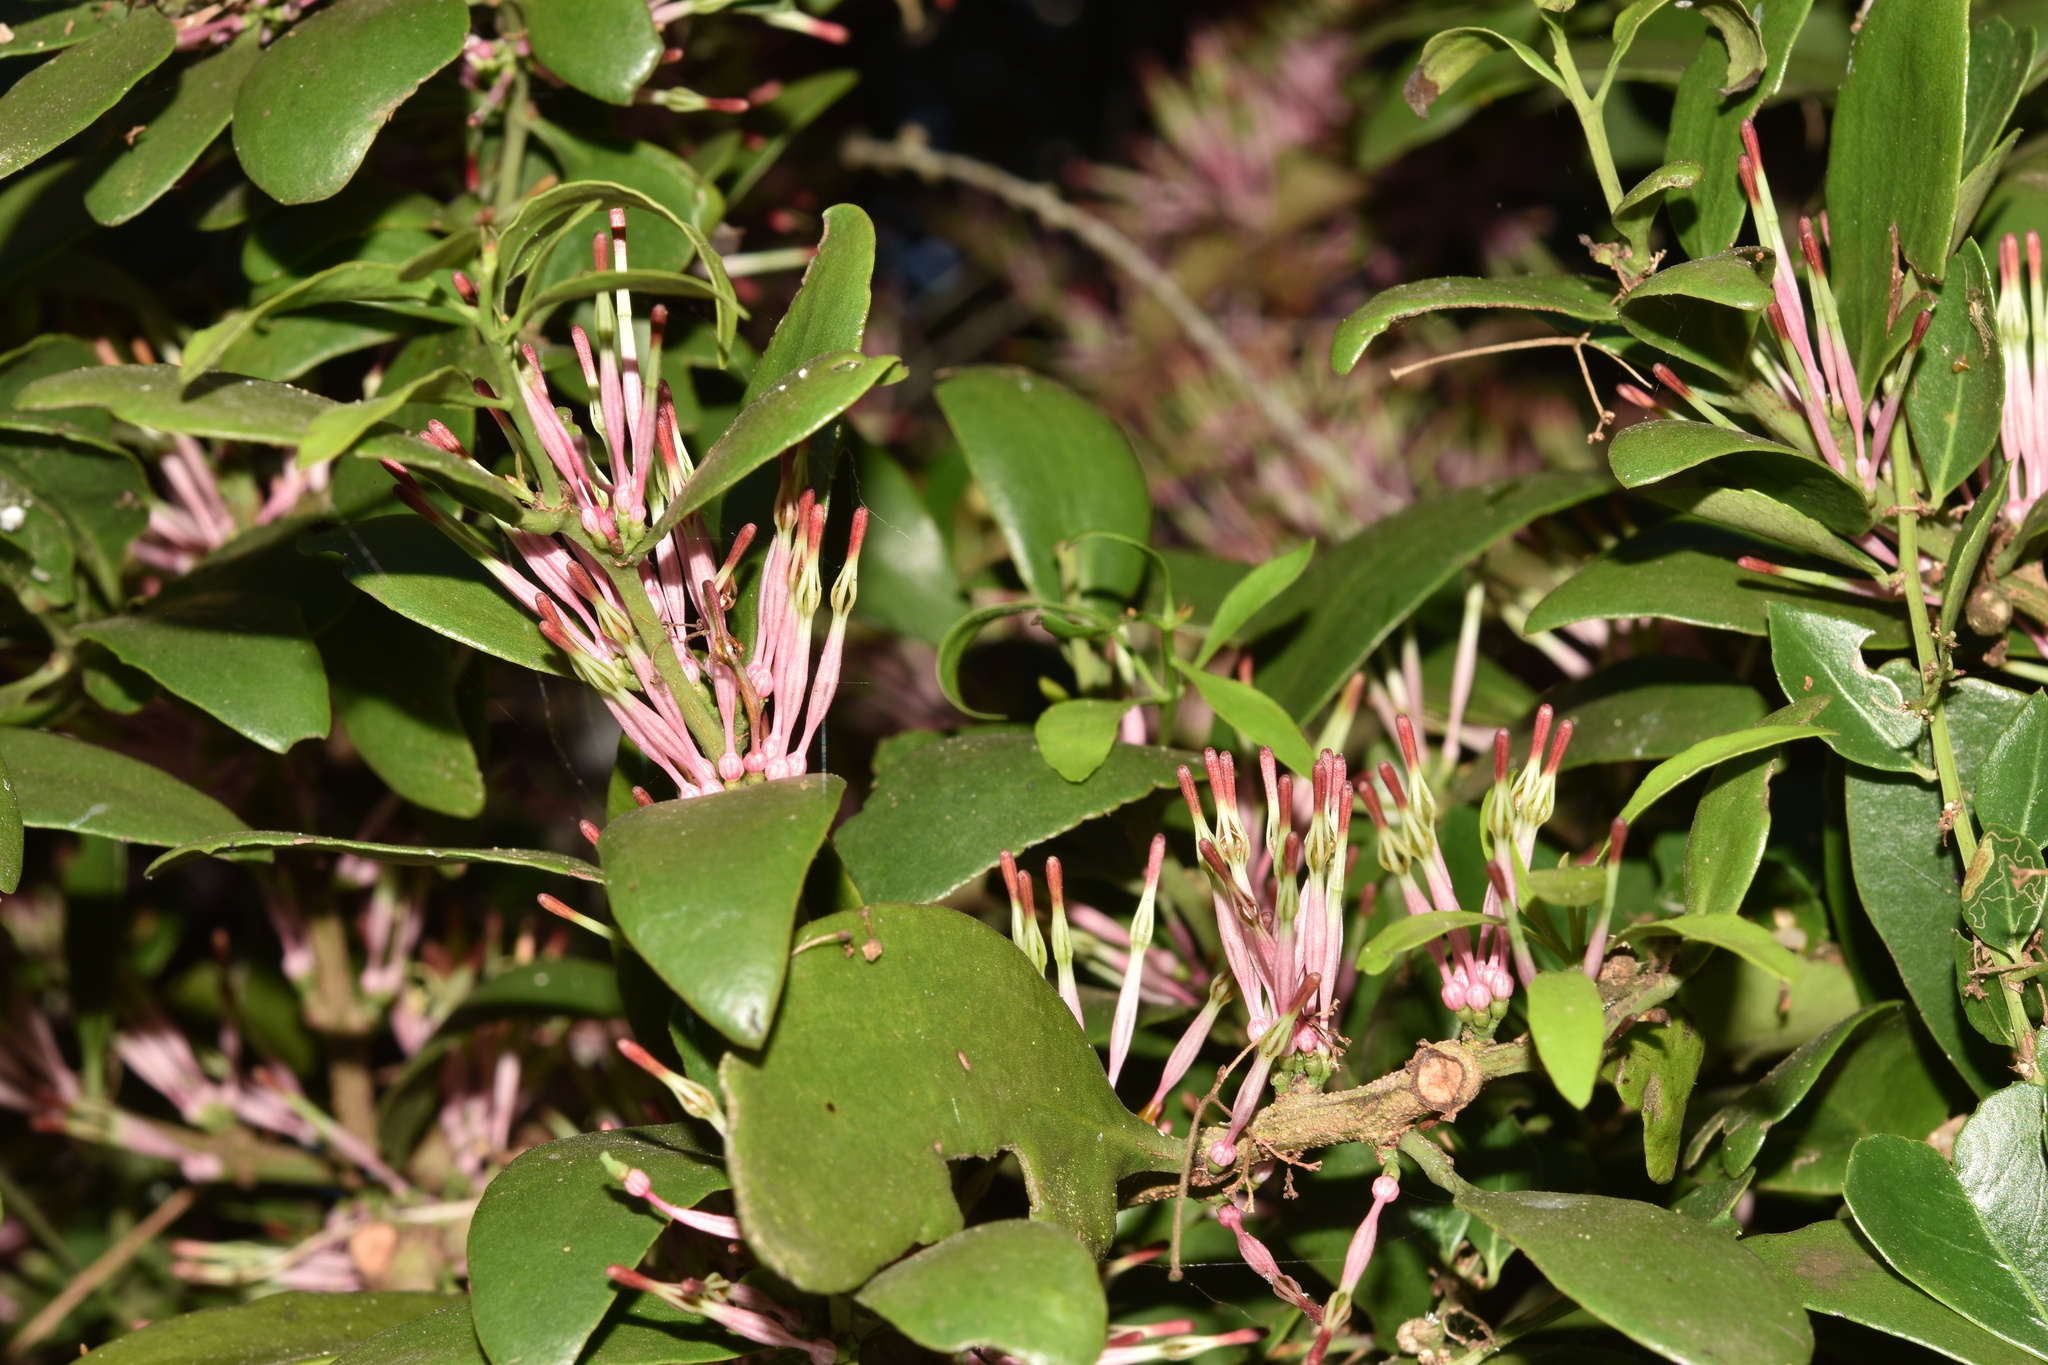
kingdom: Plantae
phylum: Tracheophyta
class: Magnoliopsida
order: Santalales
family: Loranthaceae
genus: Oncocalyx
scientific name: Oncocalyx bolusii
